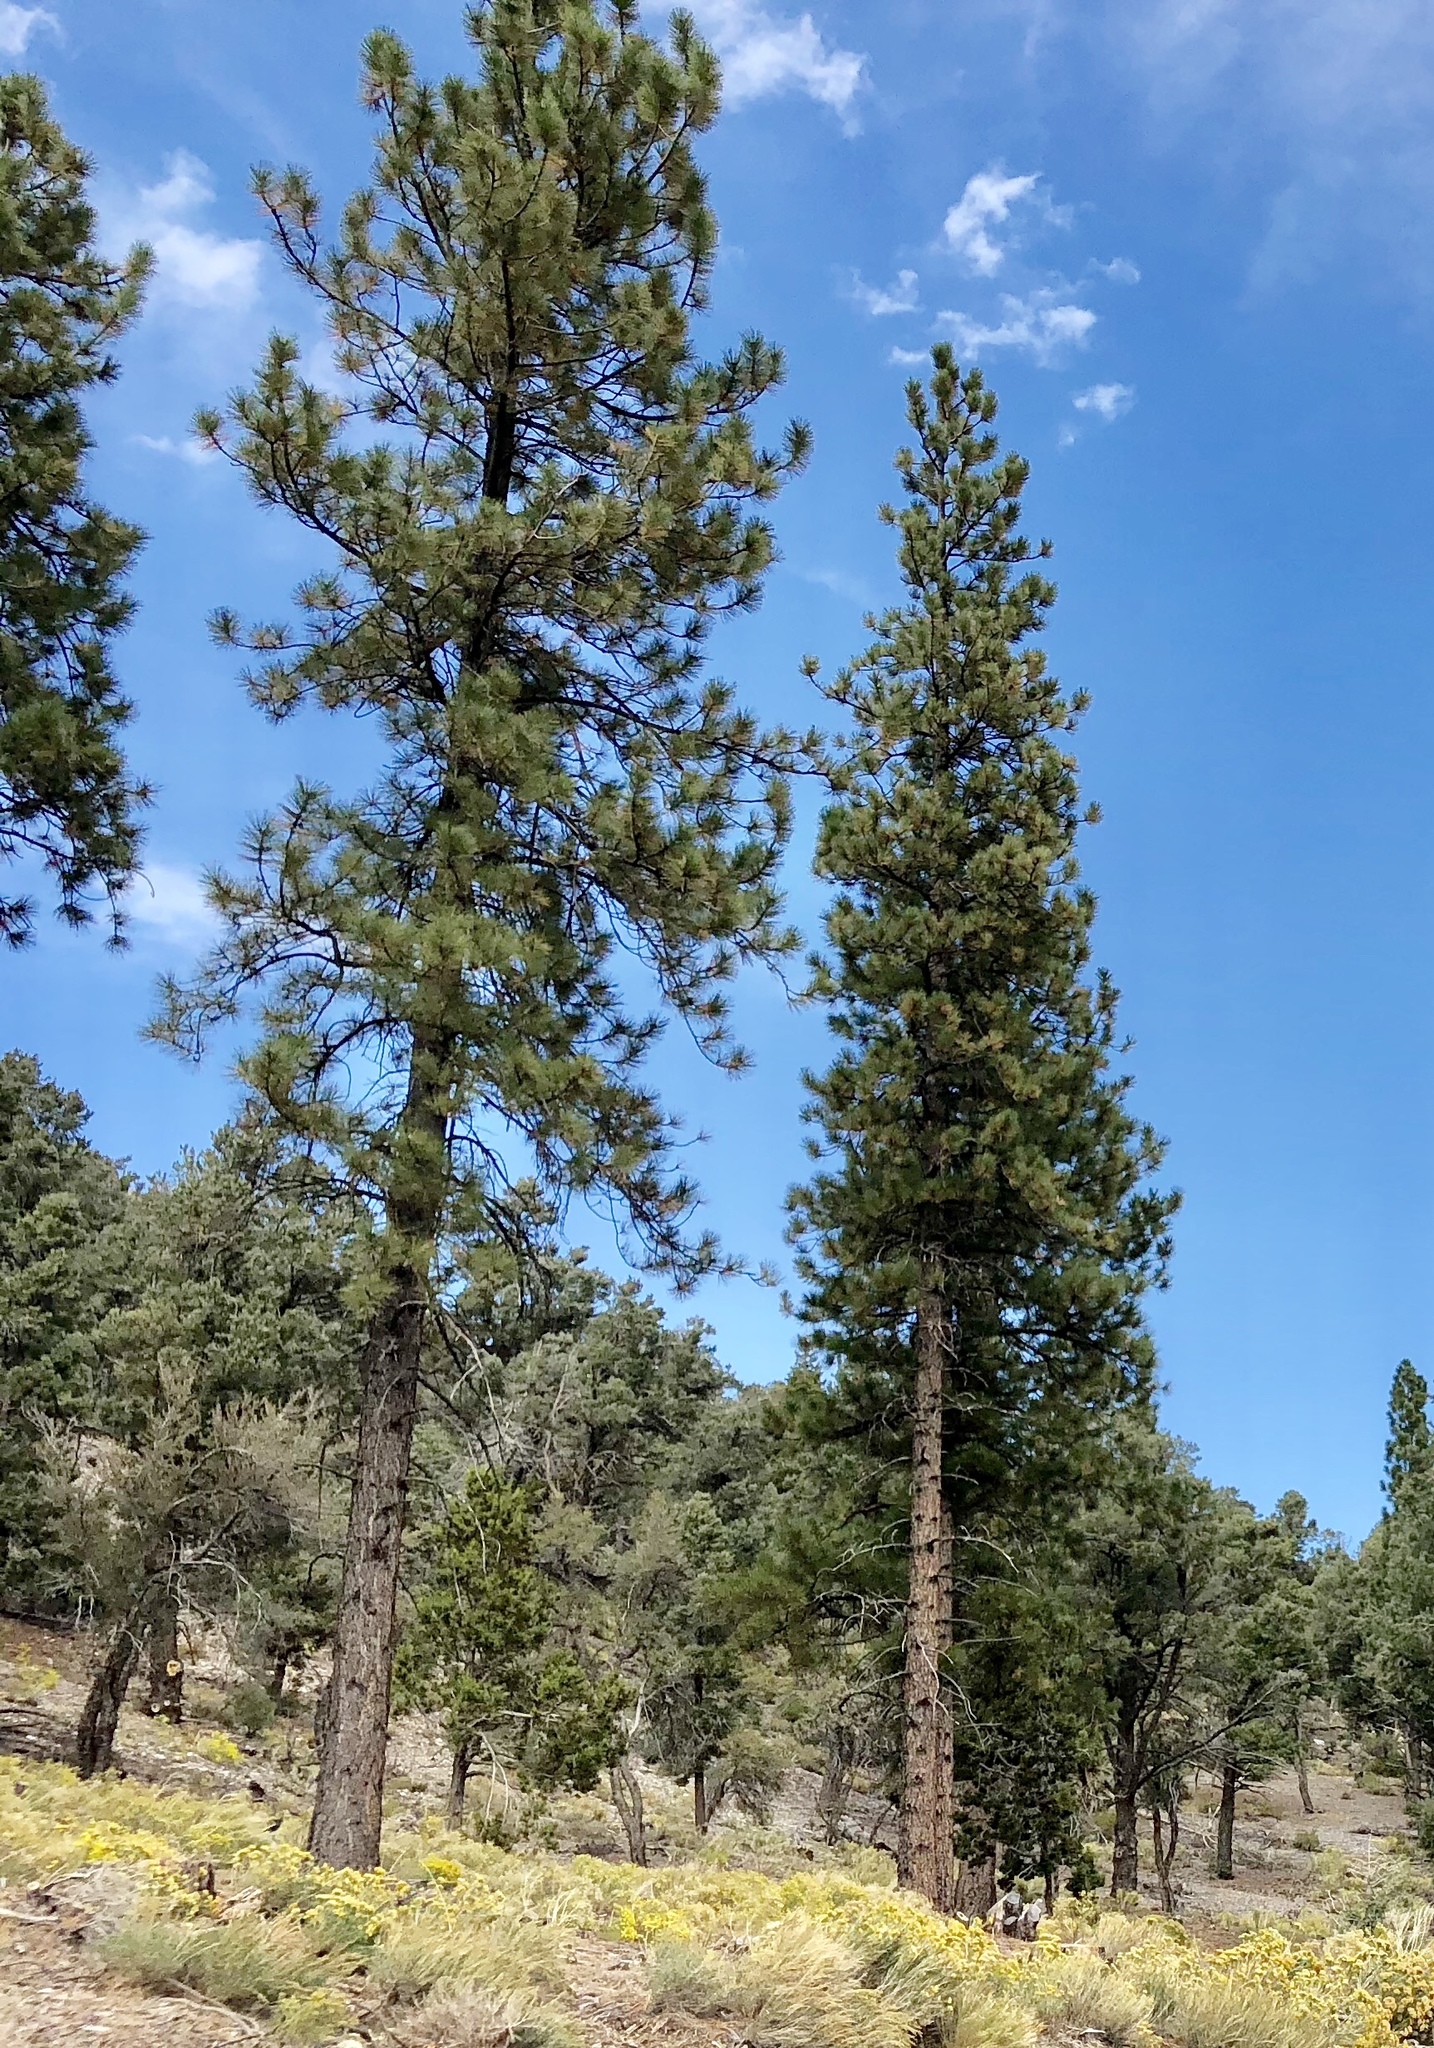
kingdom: Plantae
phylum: Tracheophyta
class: Pinopsida
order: Pinales
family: Pinaceae
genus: Pinus
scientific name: Pinus ponderosa
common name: Western yellow-pine
